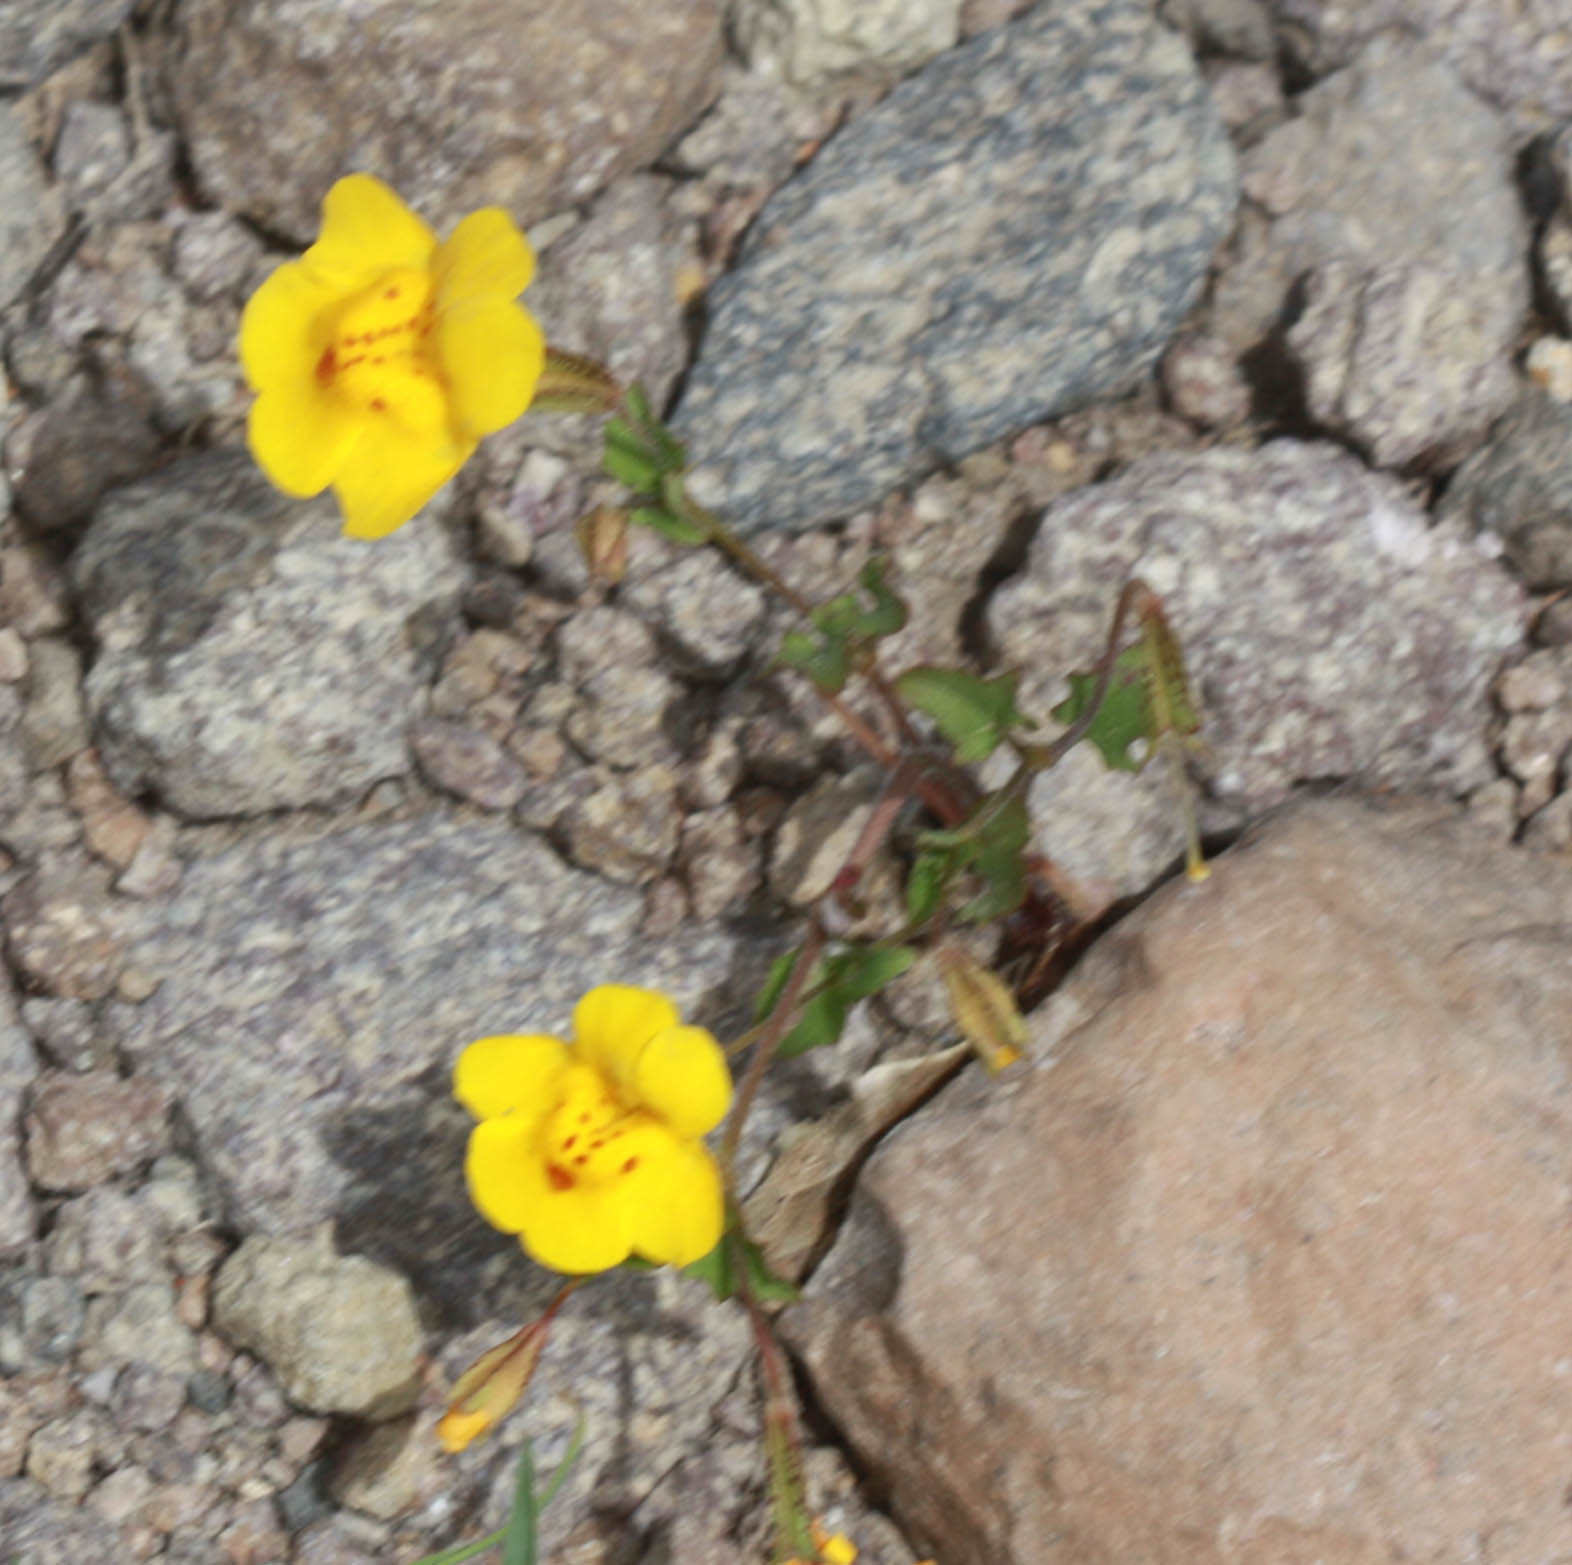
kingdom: Plantae
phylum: Tracheophyta
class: Magnoliopsida
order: Lamiales
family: Phrymaceae
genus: Erythranthe
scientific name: Erythranthe guttata
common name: Monkeyflower
